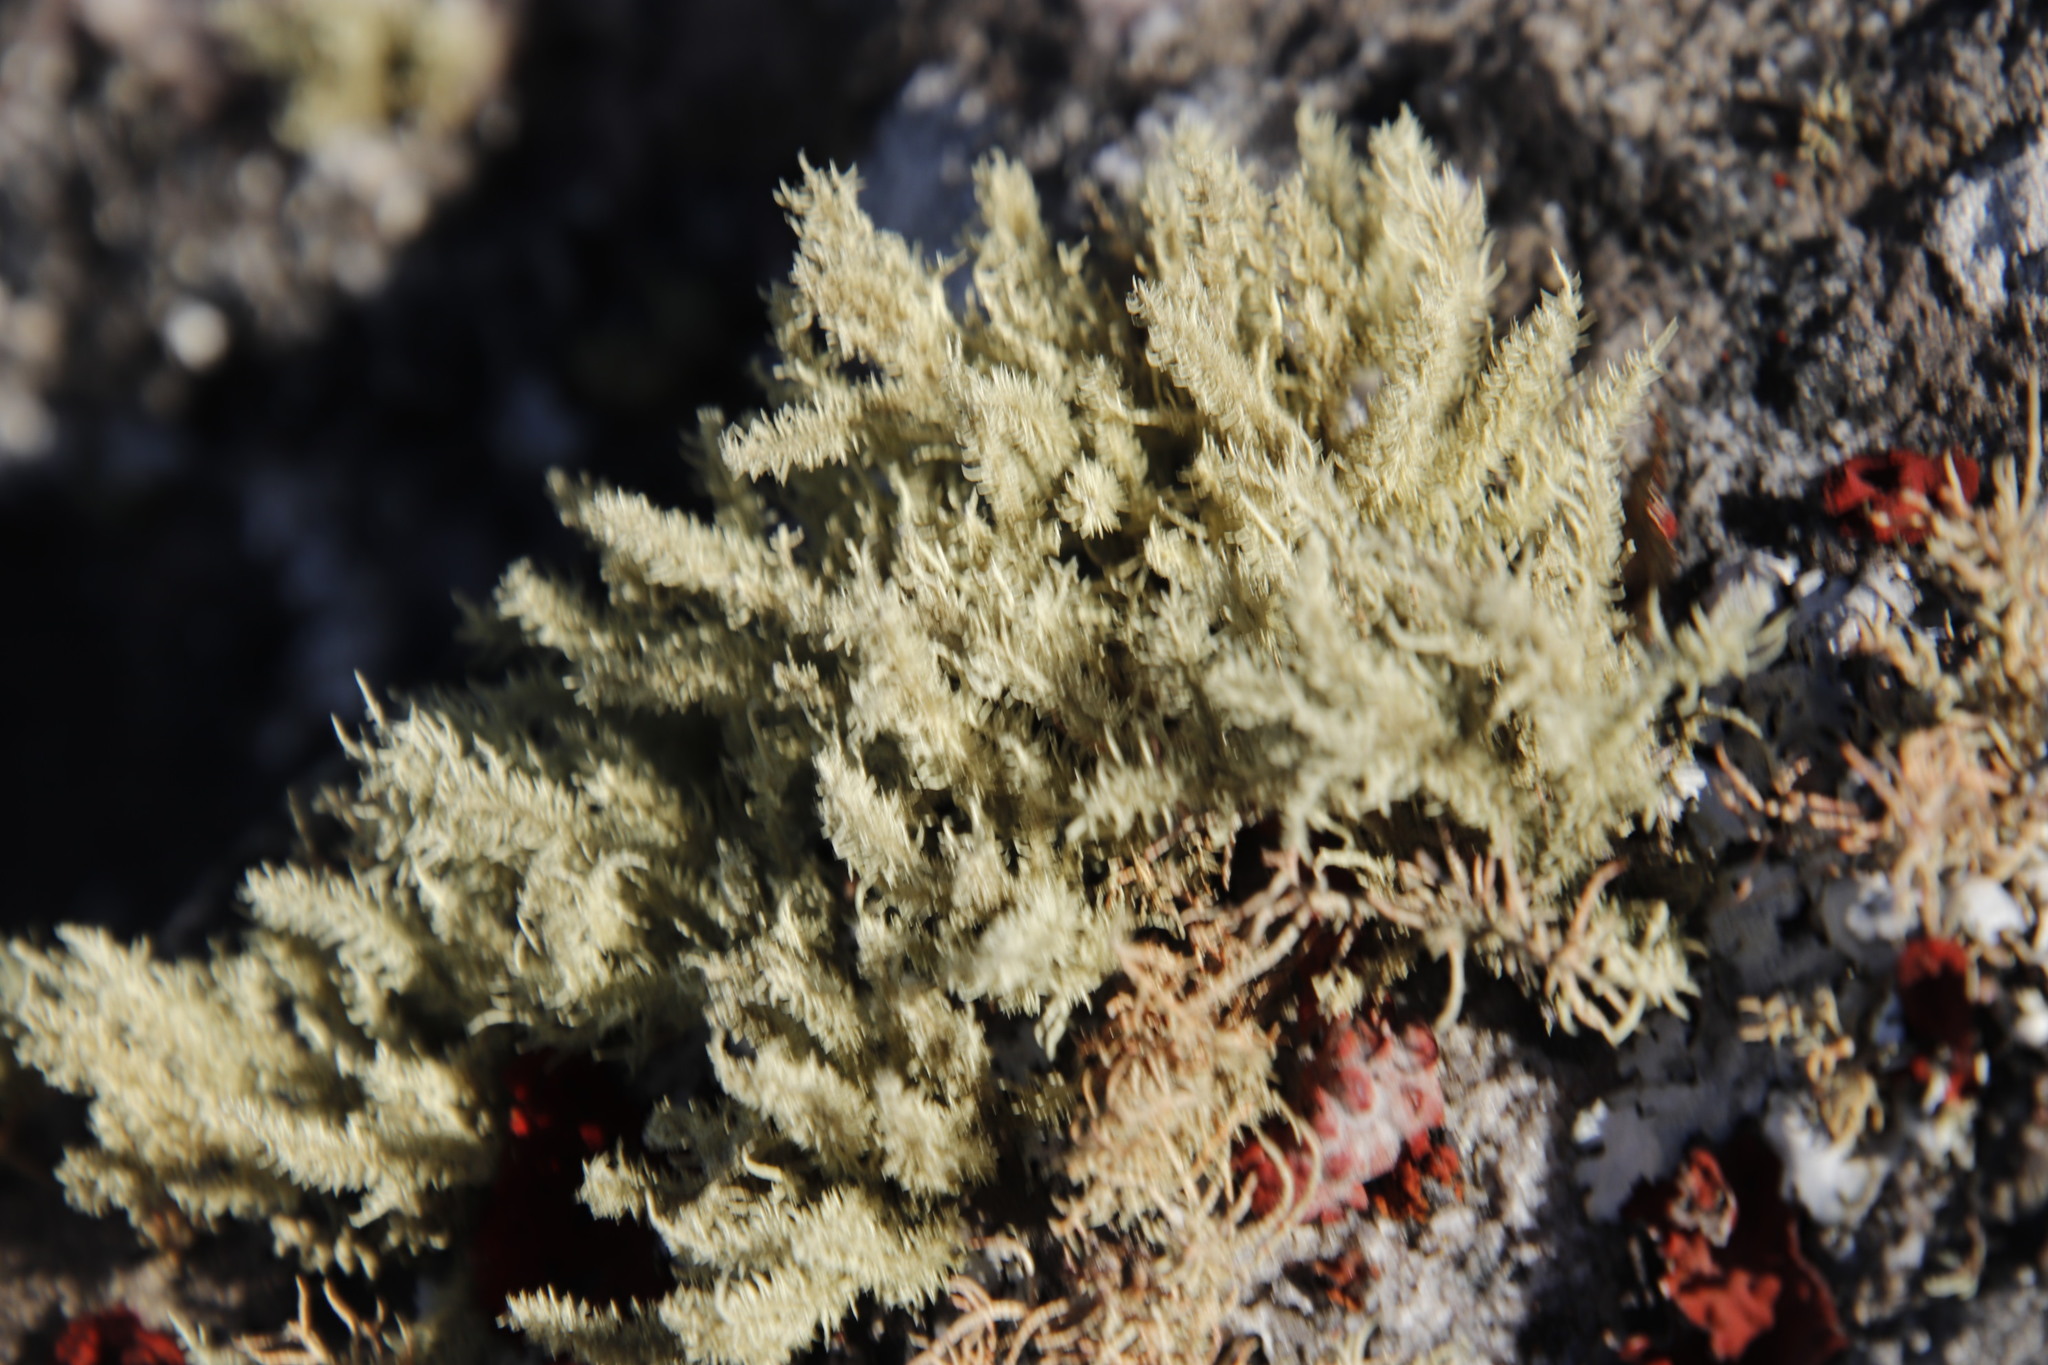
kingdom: Fungi
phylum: Ascomycota
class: Lecanoromycetes
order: Lecanorales
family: Parmeliaceae
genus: Usnea
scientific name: Usnea pulvinata
